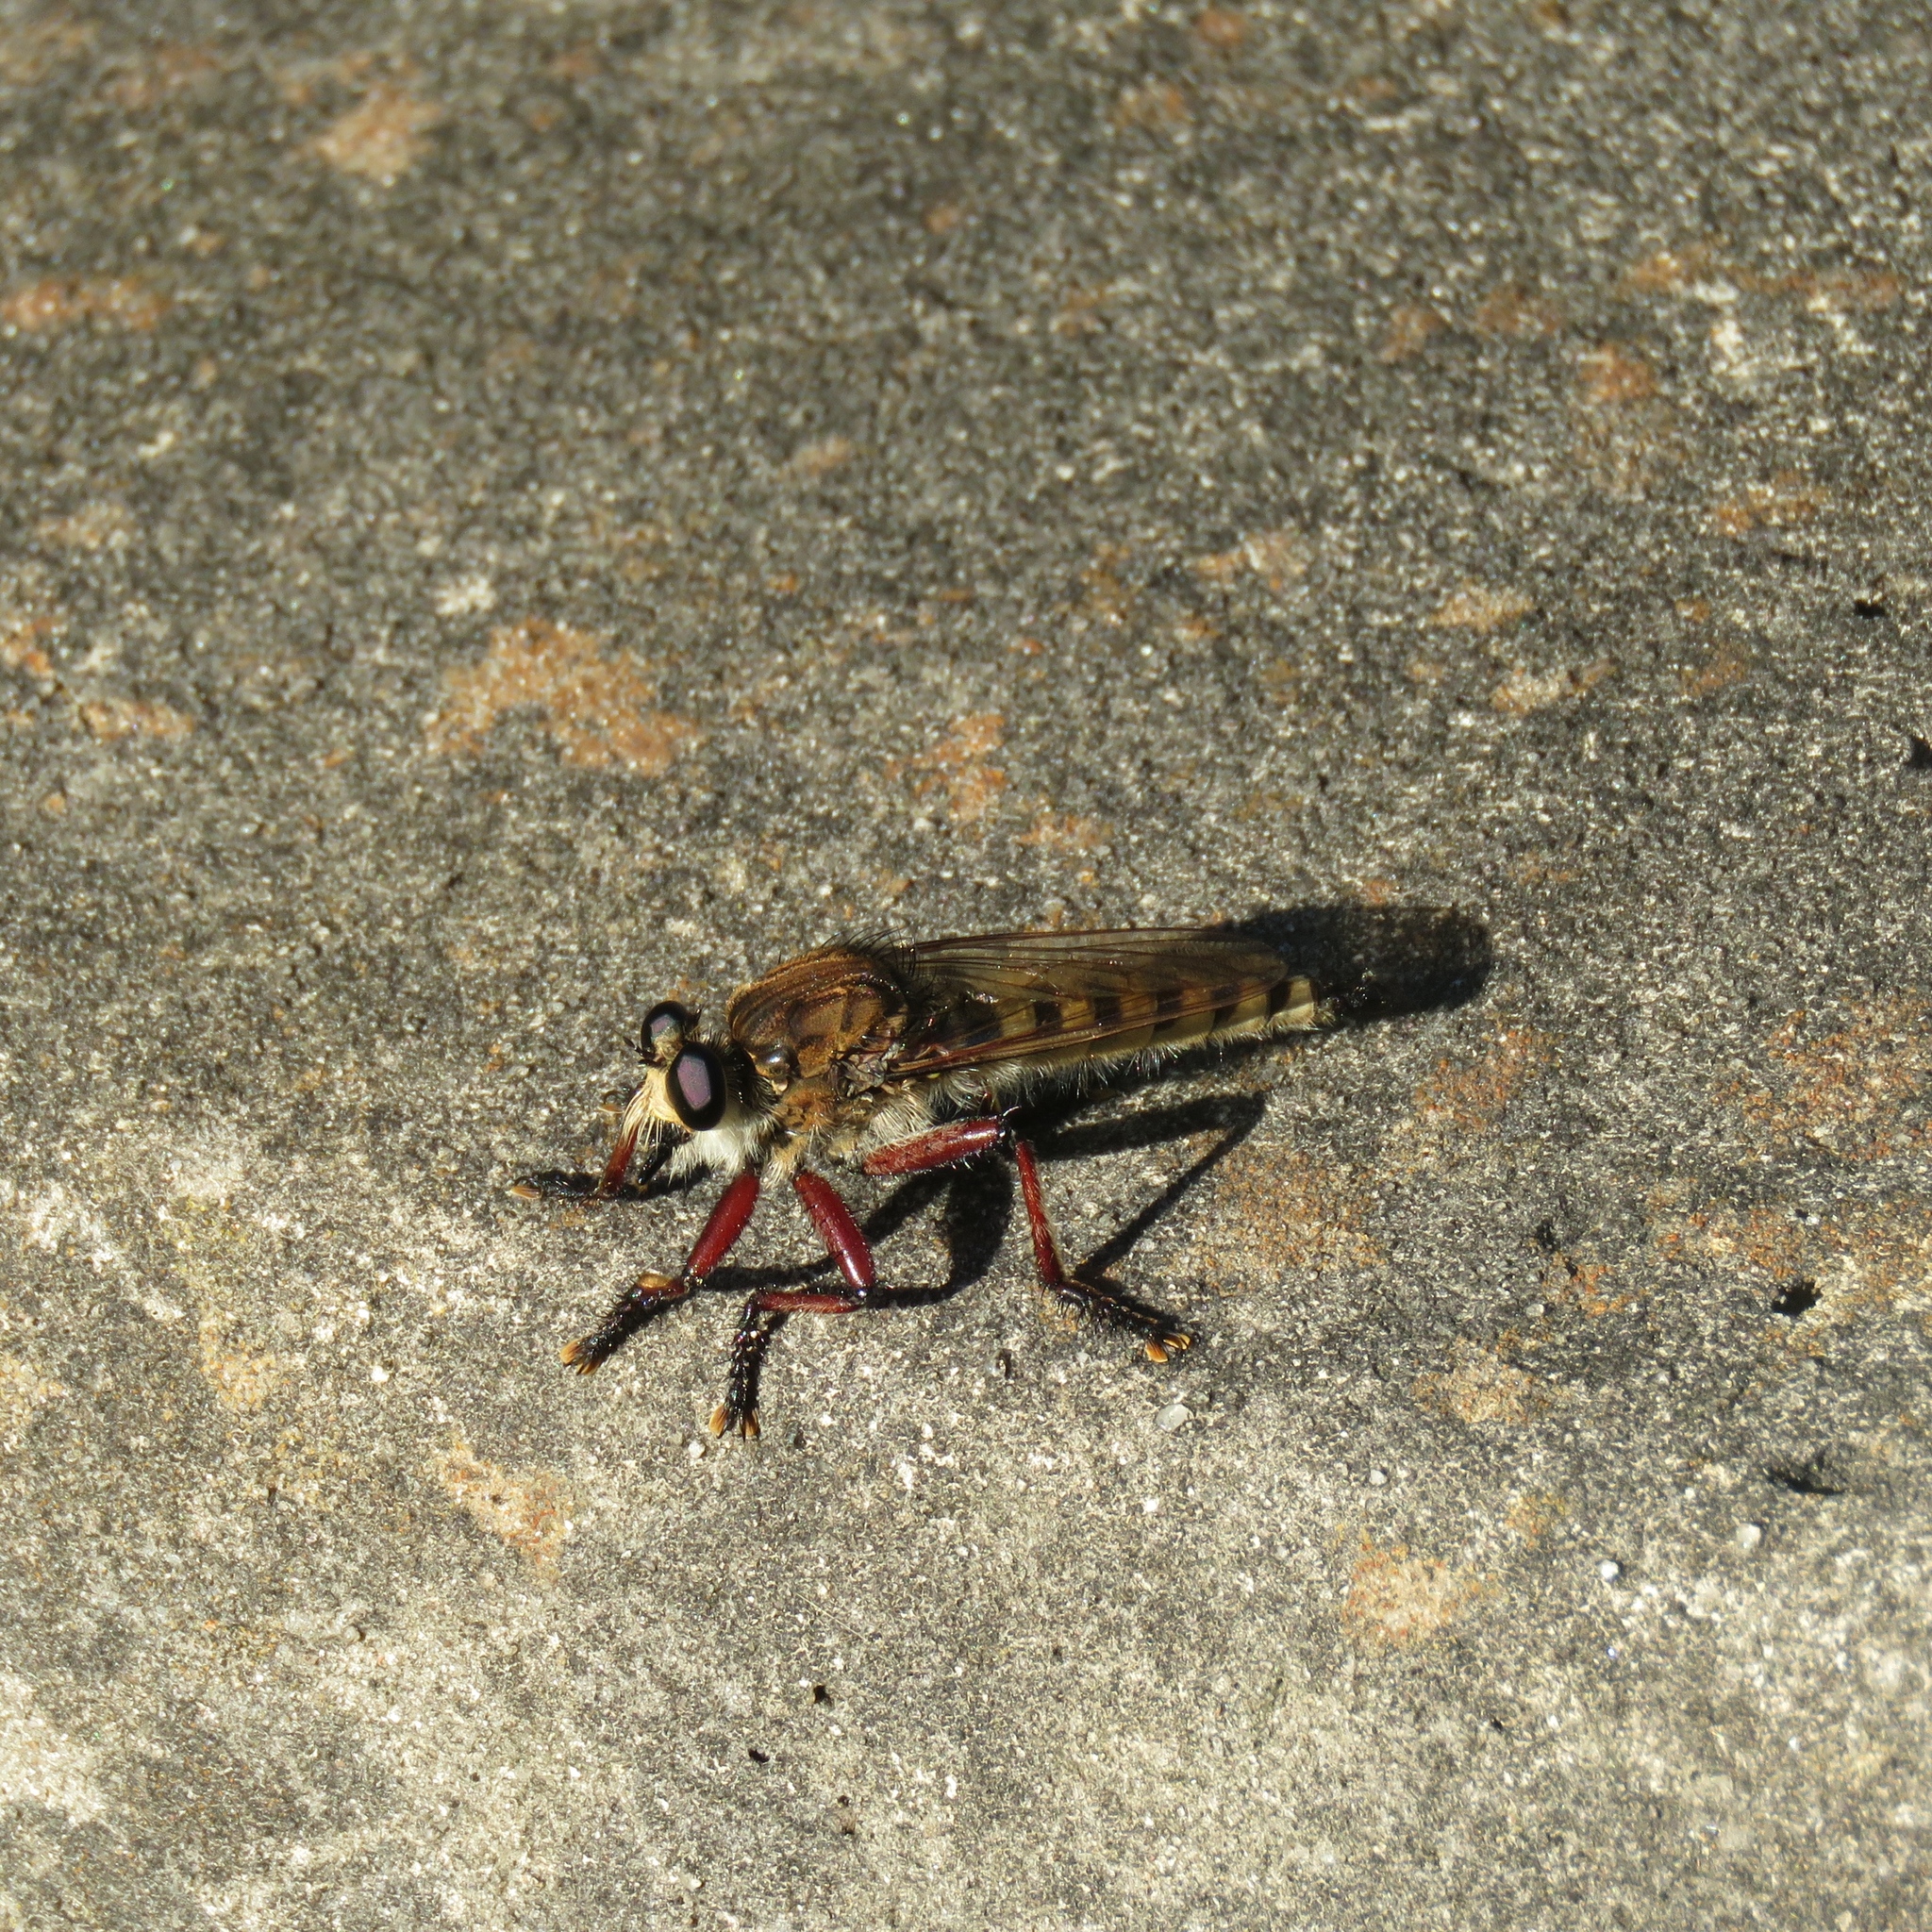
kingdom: Animalia
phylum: Arthropoda
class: Insecta
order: Diptera
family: Asilidae
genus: Promachus
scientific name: Promachus hinei
